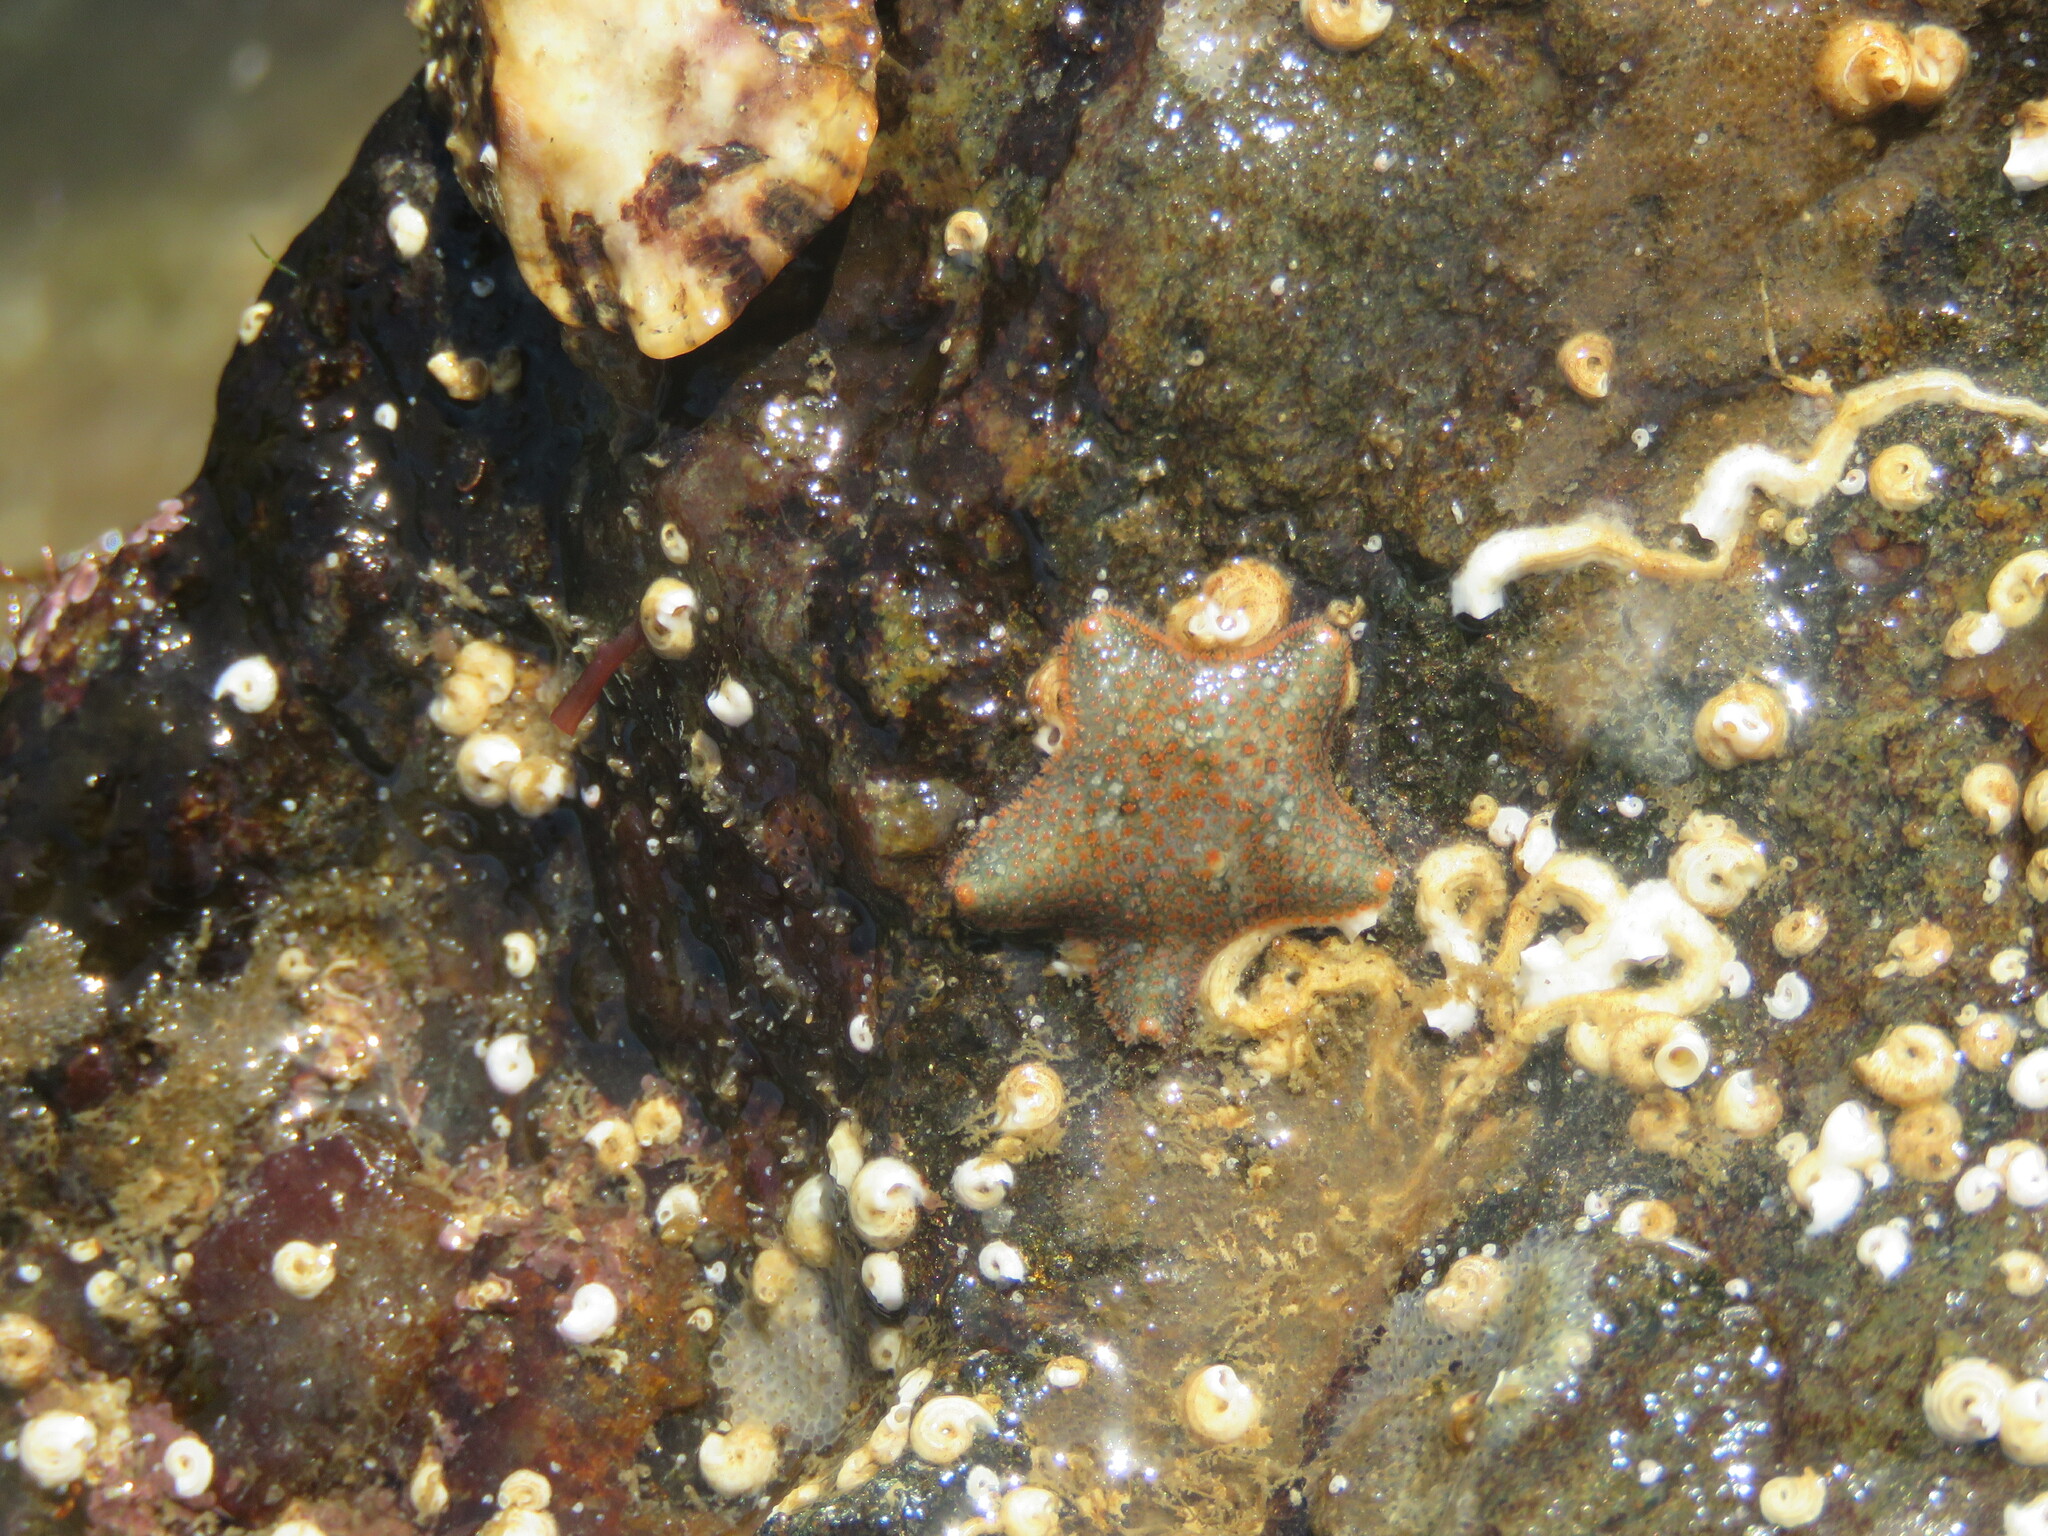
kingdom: Animalia
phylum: Echinodermata
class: Asteroidea
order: Valvatida
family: Asterinidae
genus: Asterina
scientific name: Asterina gibbosa
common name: Cushion star
